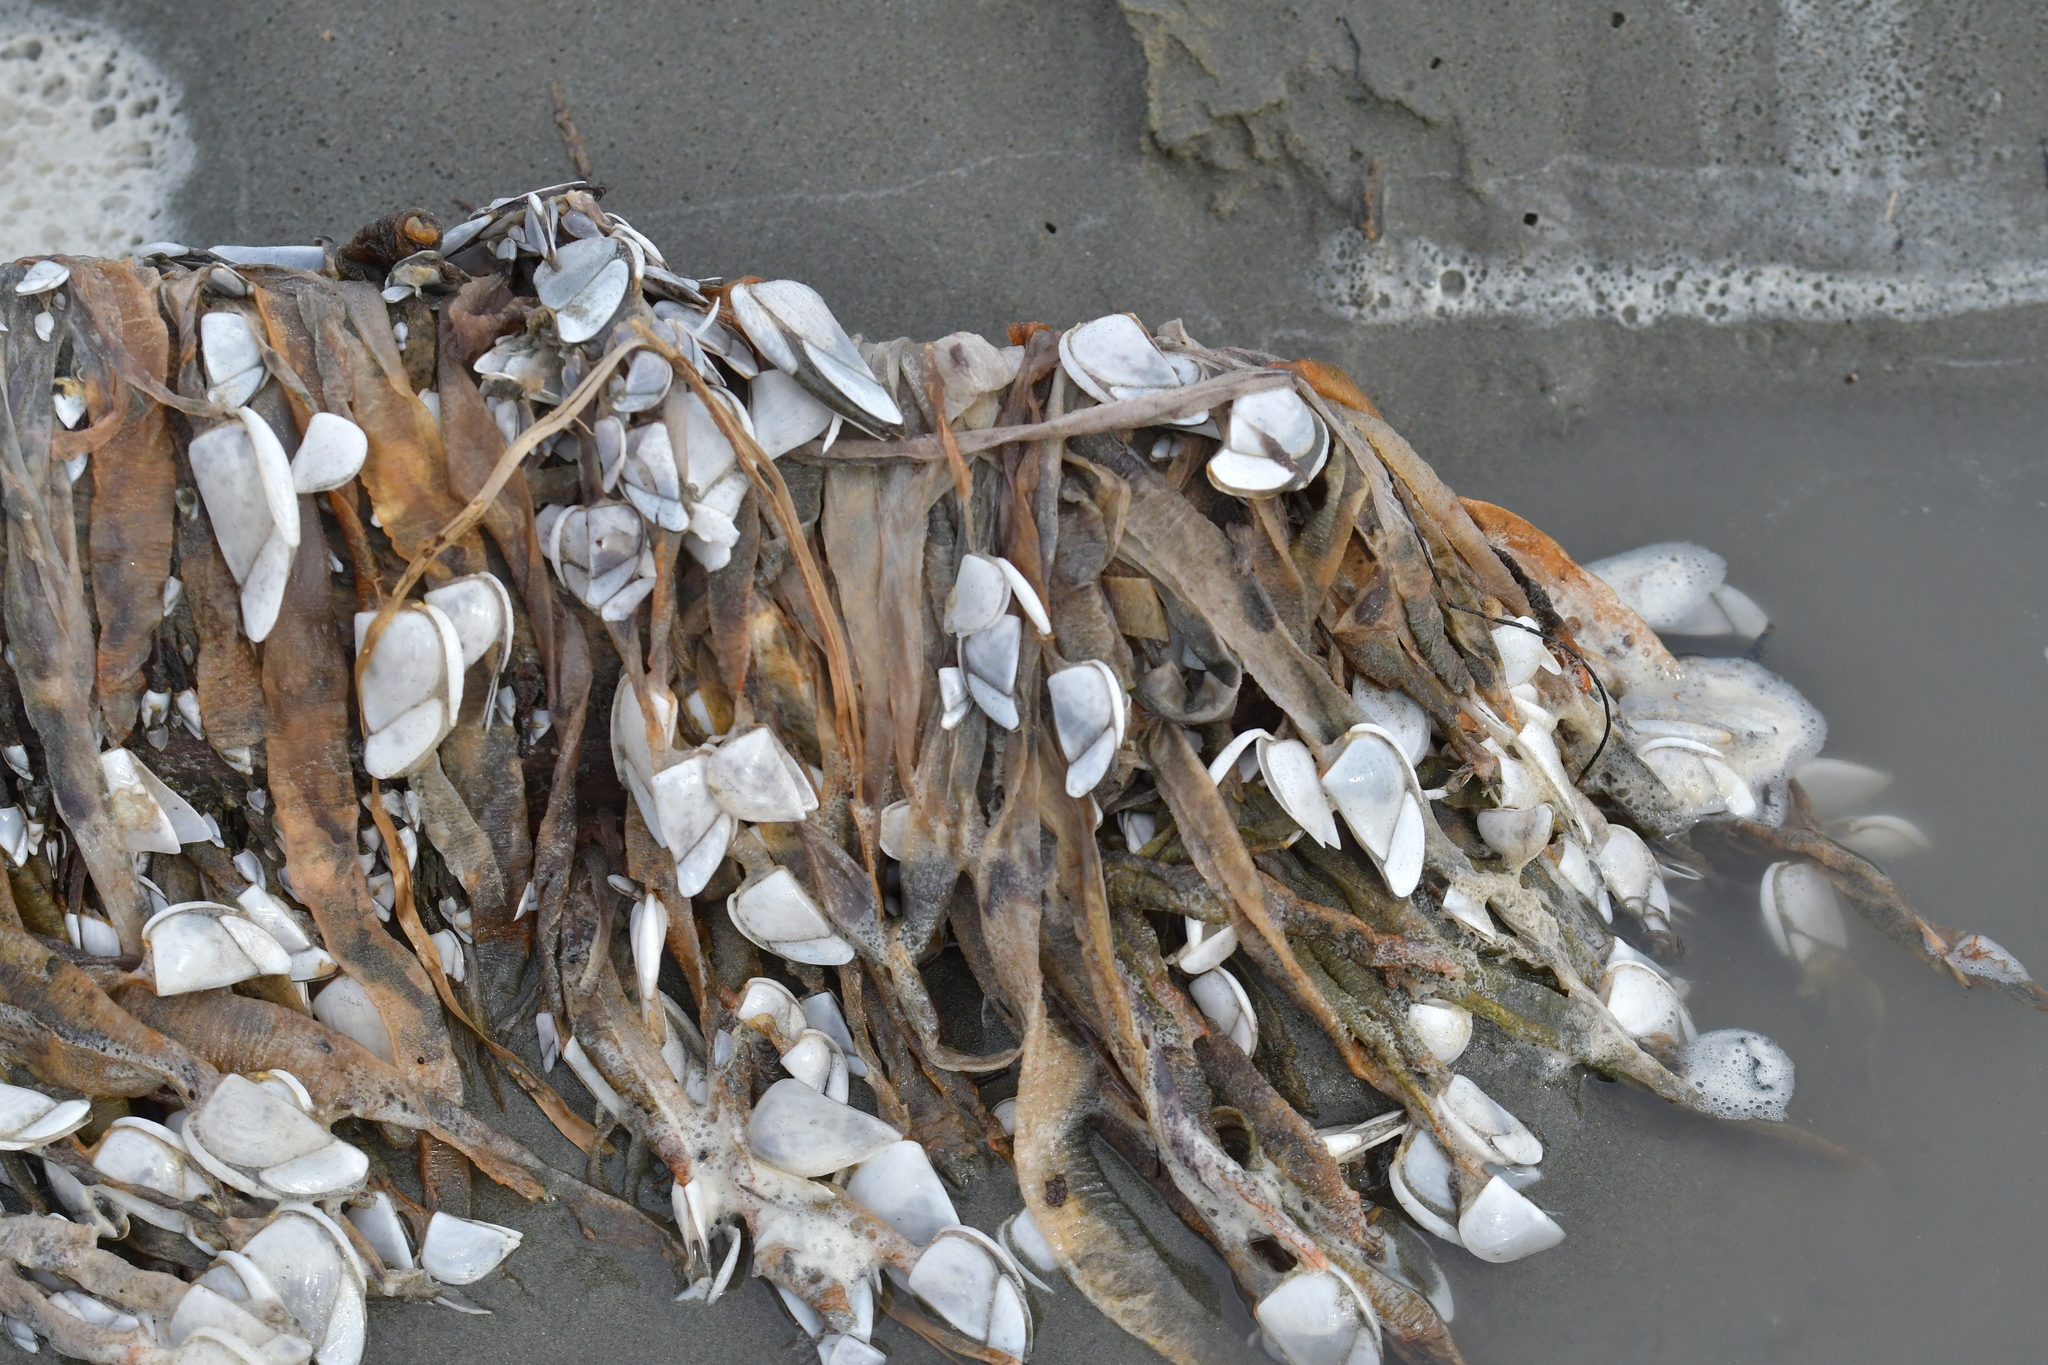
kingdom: Animalia
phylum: Arthropoda
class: Maxillopoda
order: Pedunculata
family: Lepadidae
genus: Lepas
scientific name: Lepas testudinata
